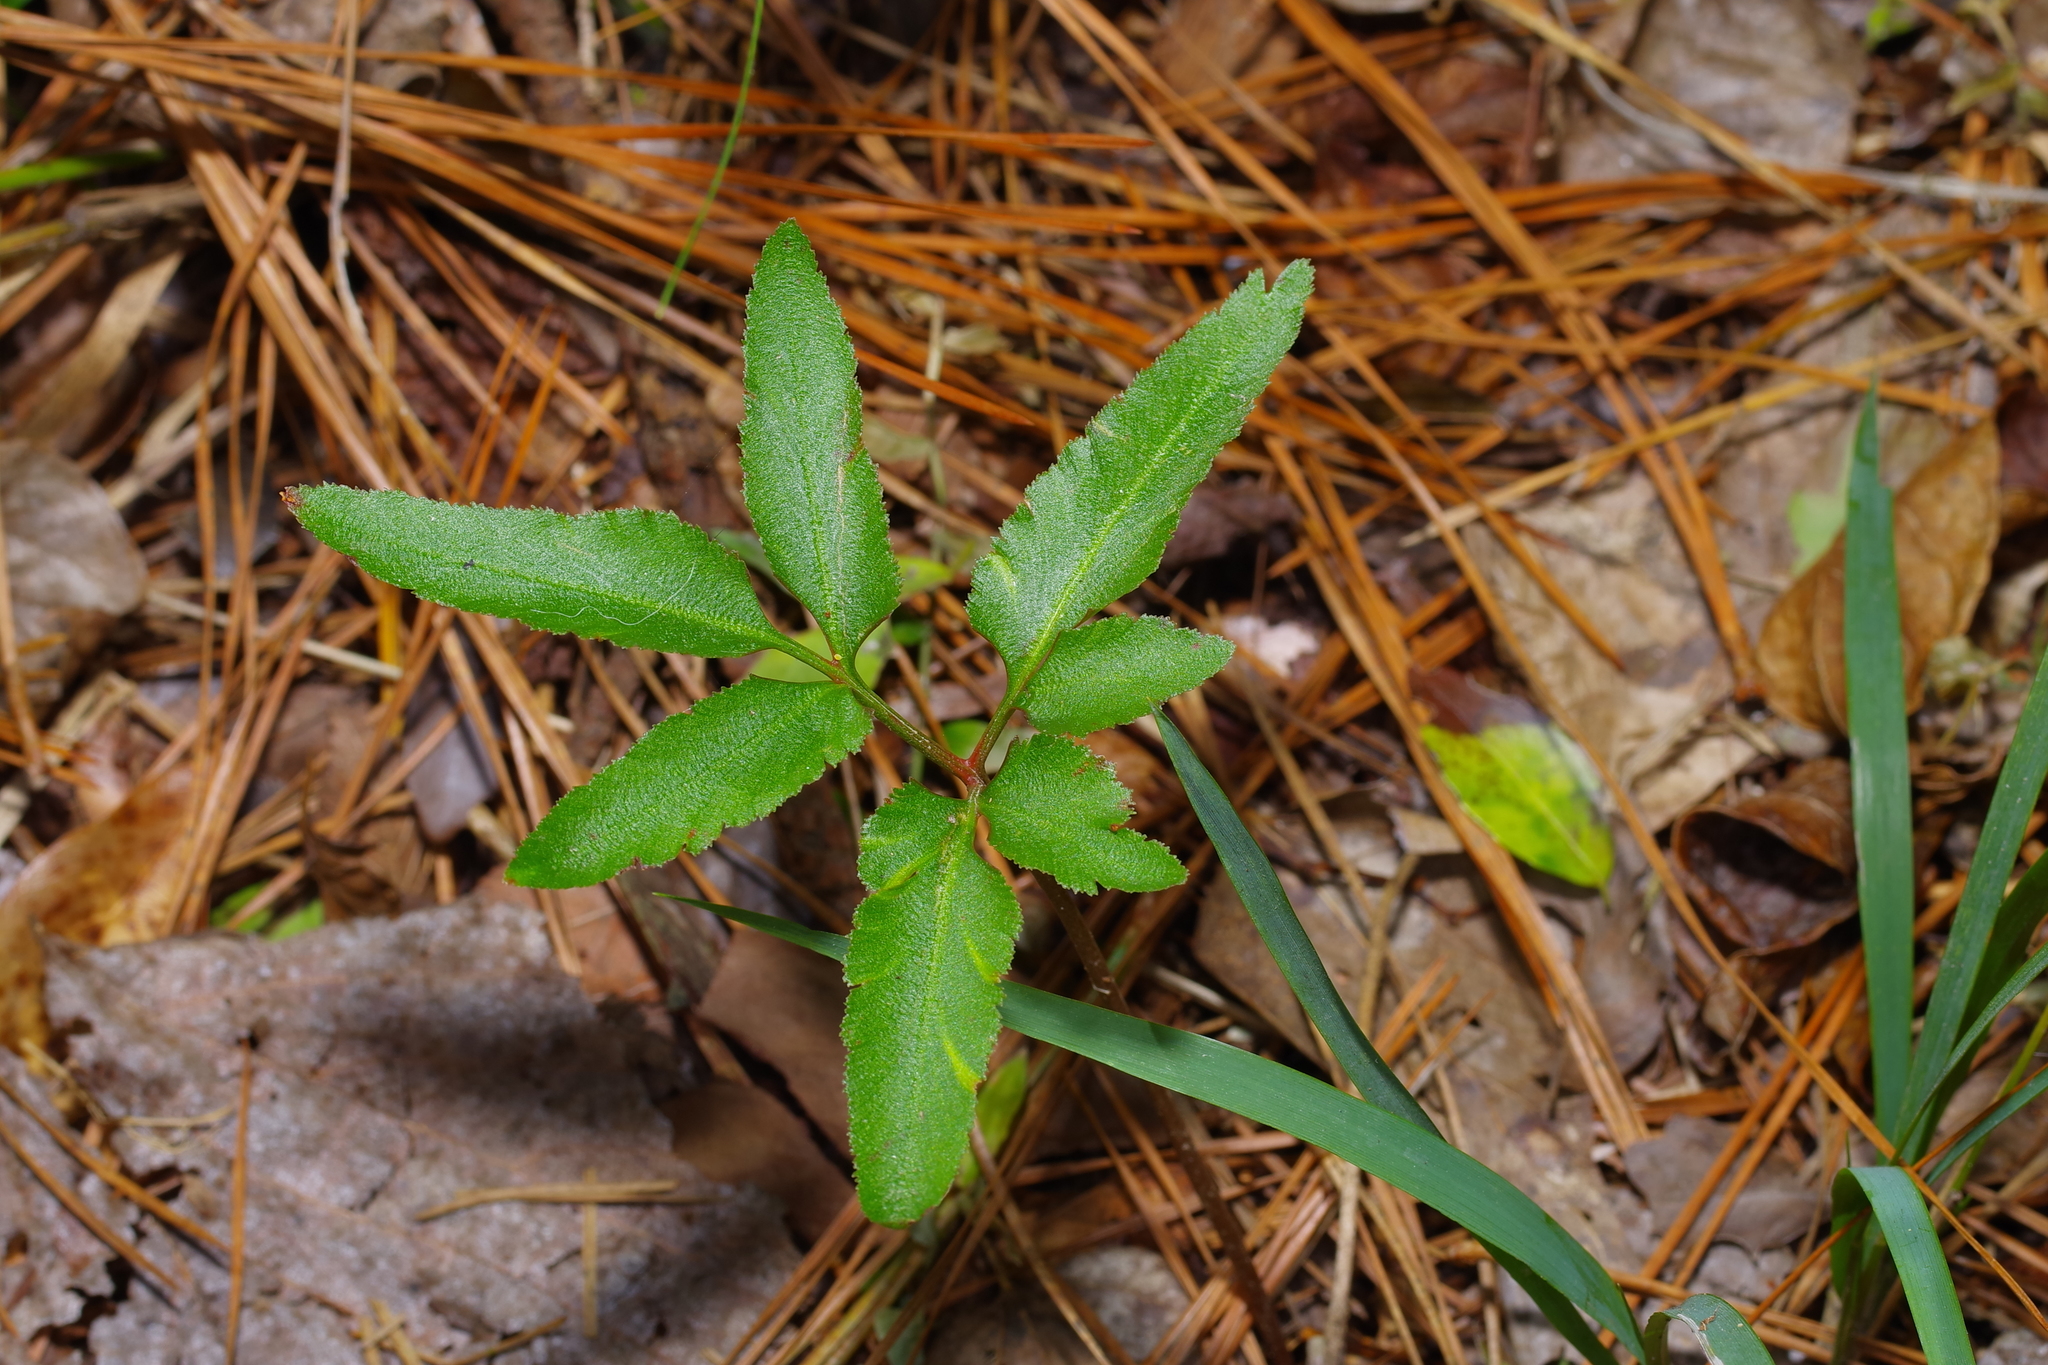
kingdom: Plantae
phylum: Tracheophyta
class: Polypodiopsida
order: Ophioglossales
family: Ophioglossaceae
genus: Sceptridium
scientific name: Sceptridium biternatum
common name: Sparse-lobed grapefern
